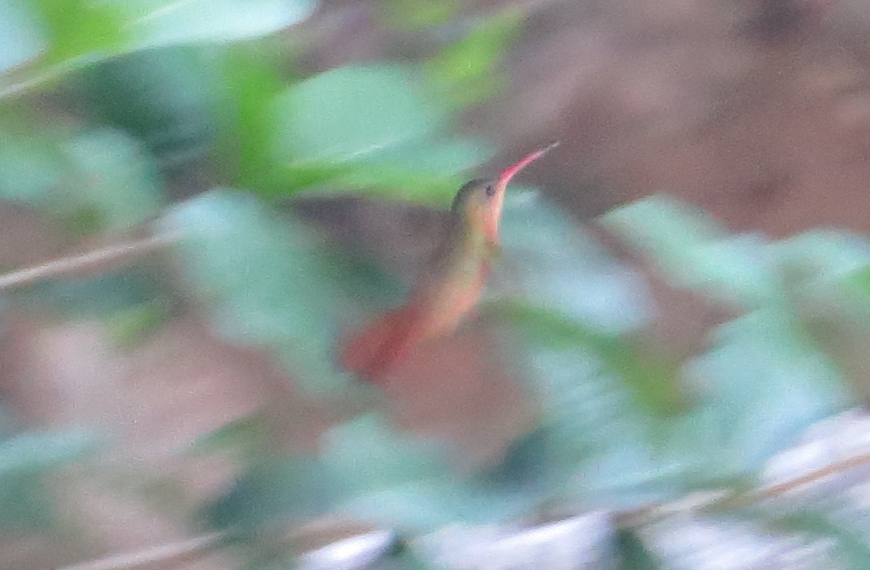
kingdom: Animalia
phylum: Chordata
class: Aves
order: Apodiformes
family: Trochilidae
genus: Amazilia
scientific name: Amazilia rutila
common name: Cinnamon hummingbird
